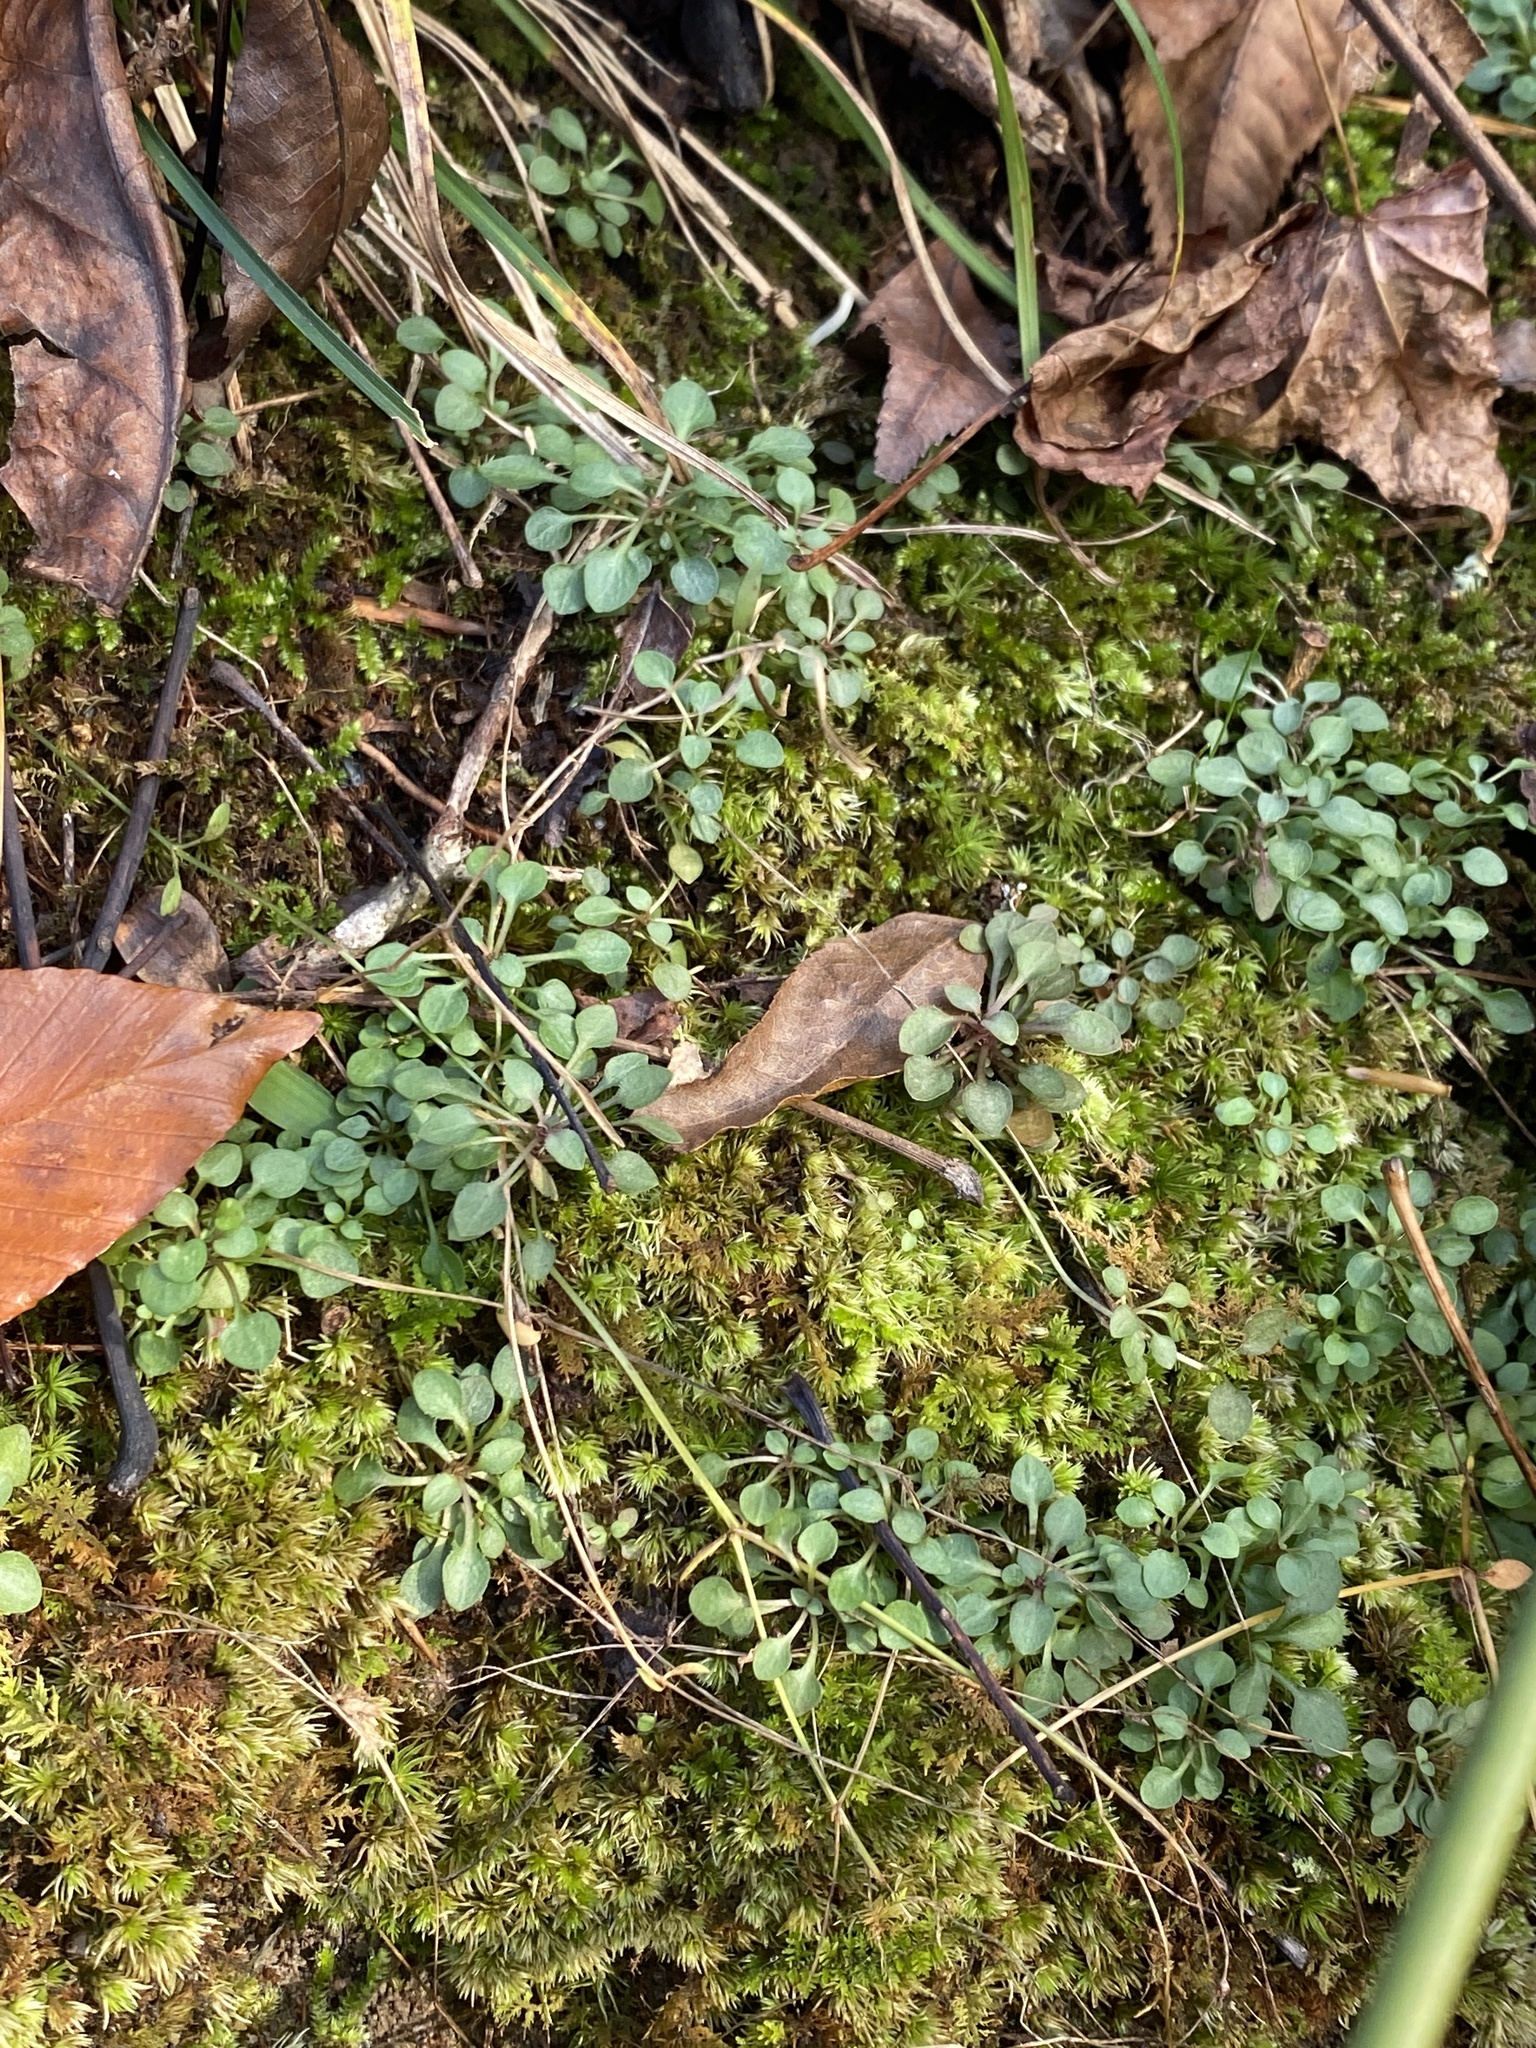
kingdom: Plantae
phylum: Tracheophyta
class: Magnoliopsida
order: Gentianales
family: Rubiaceae
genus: Houstonia
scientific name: Houstonia caerulea
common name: Bluets
